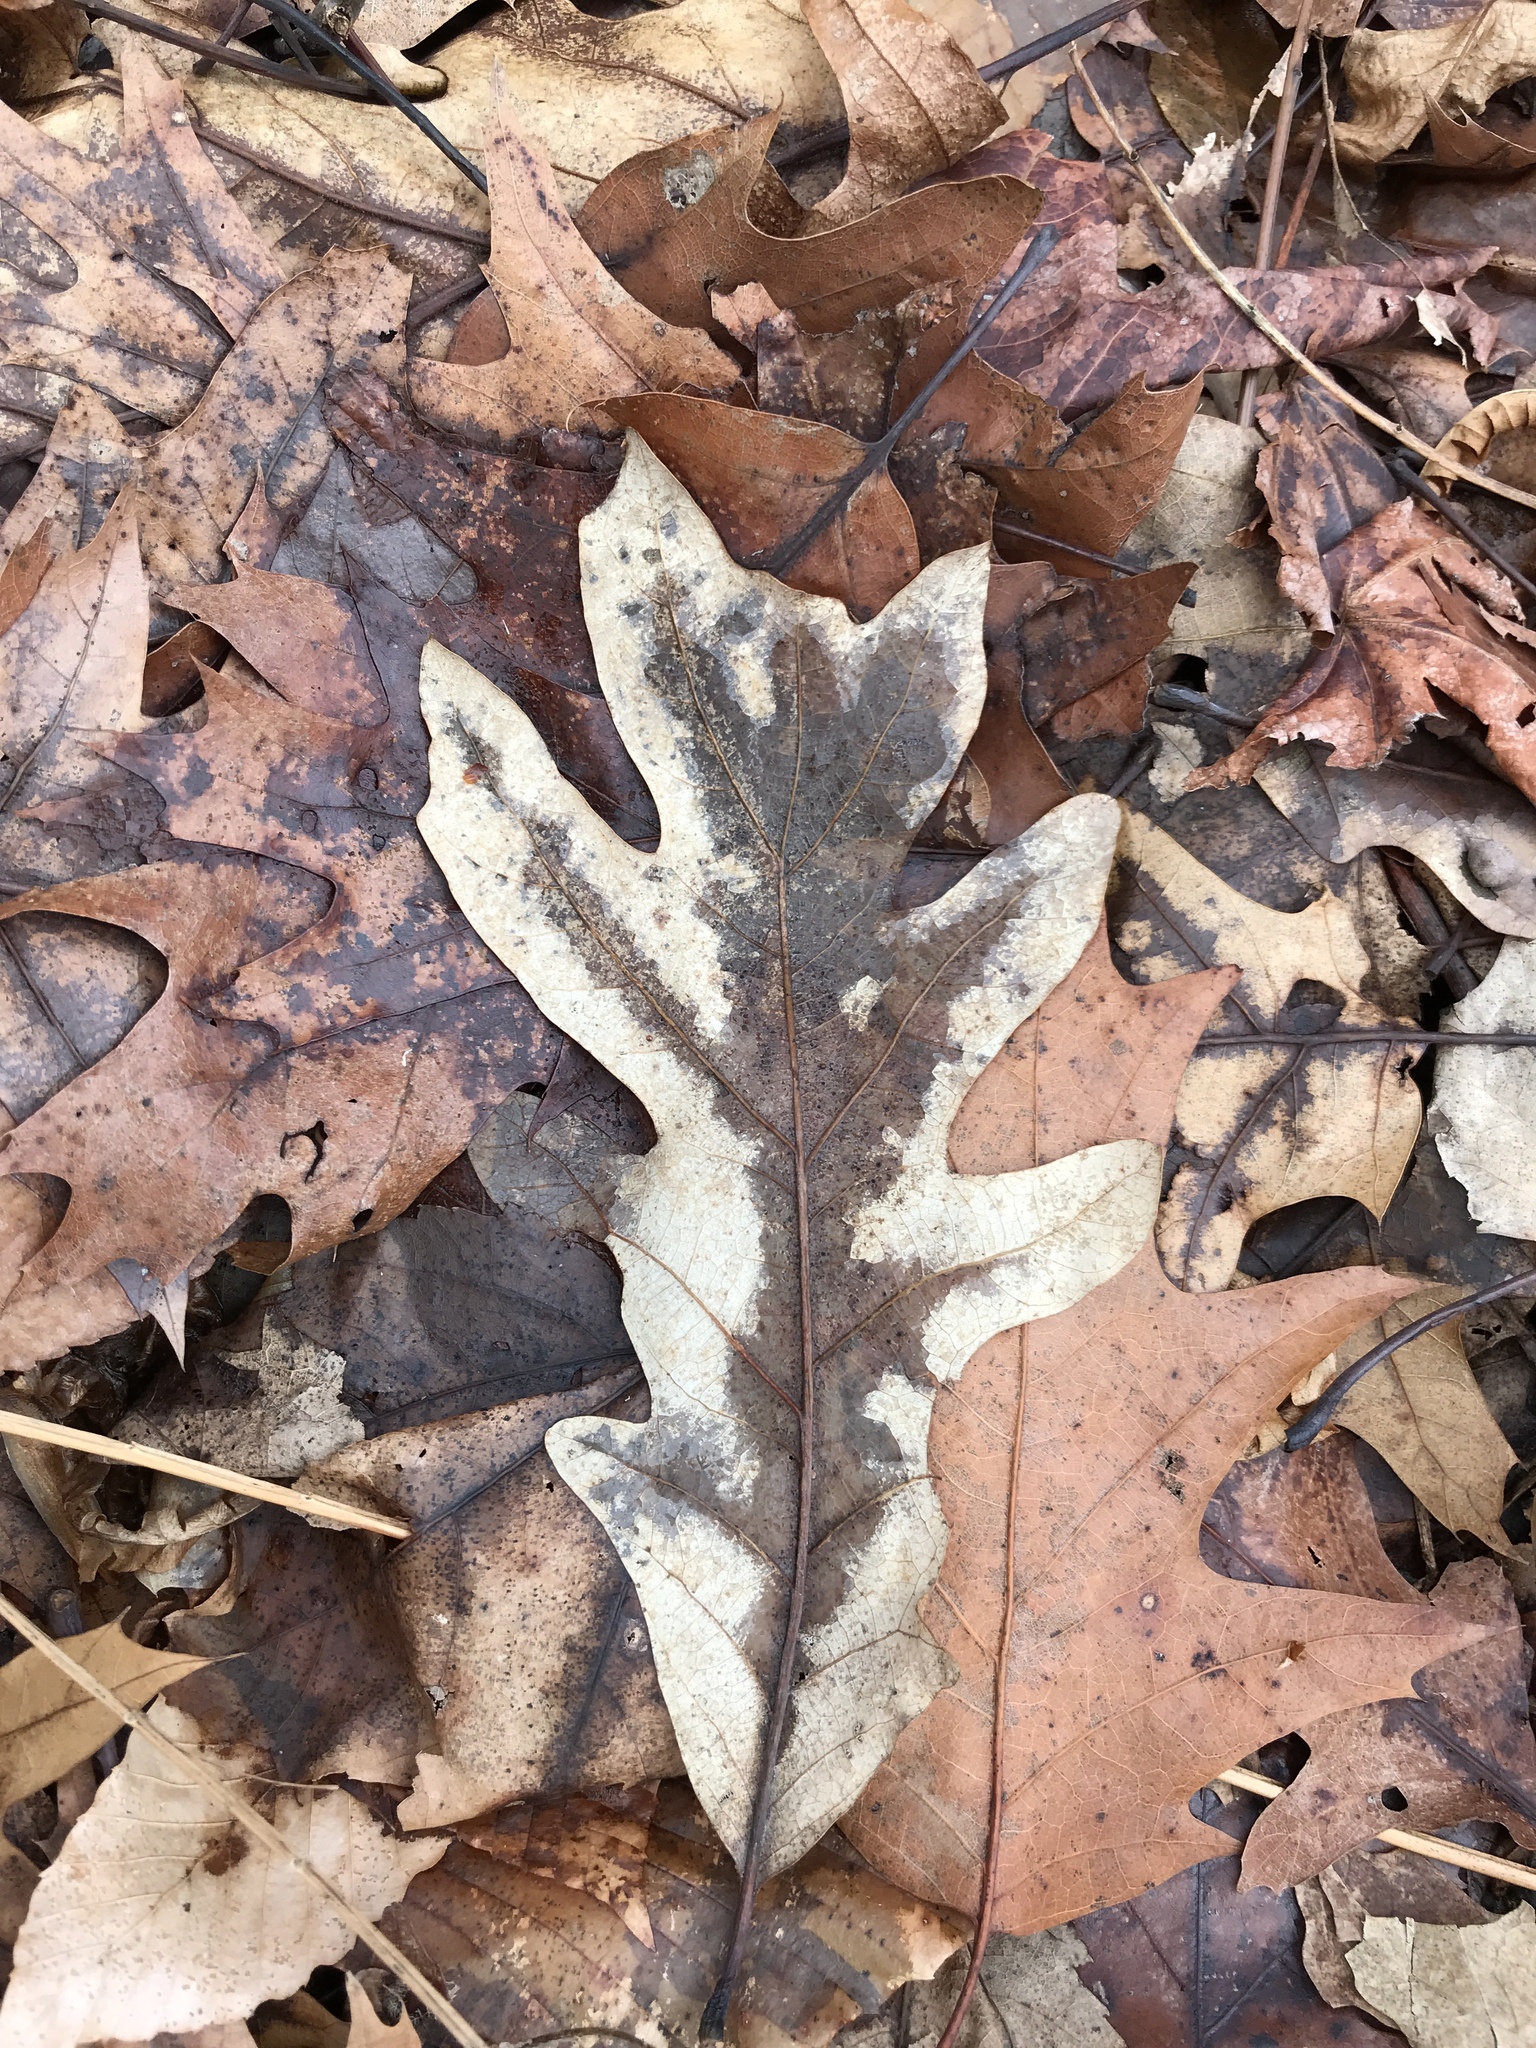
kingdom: Plantae
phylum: Tracheophyta
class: Magnoliopsida
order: Fagales
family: Fagaceae
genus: Quercus
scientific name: Quercus alba
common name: White oak
